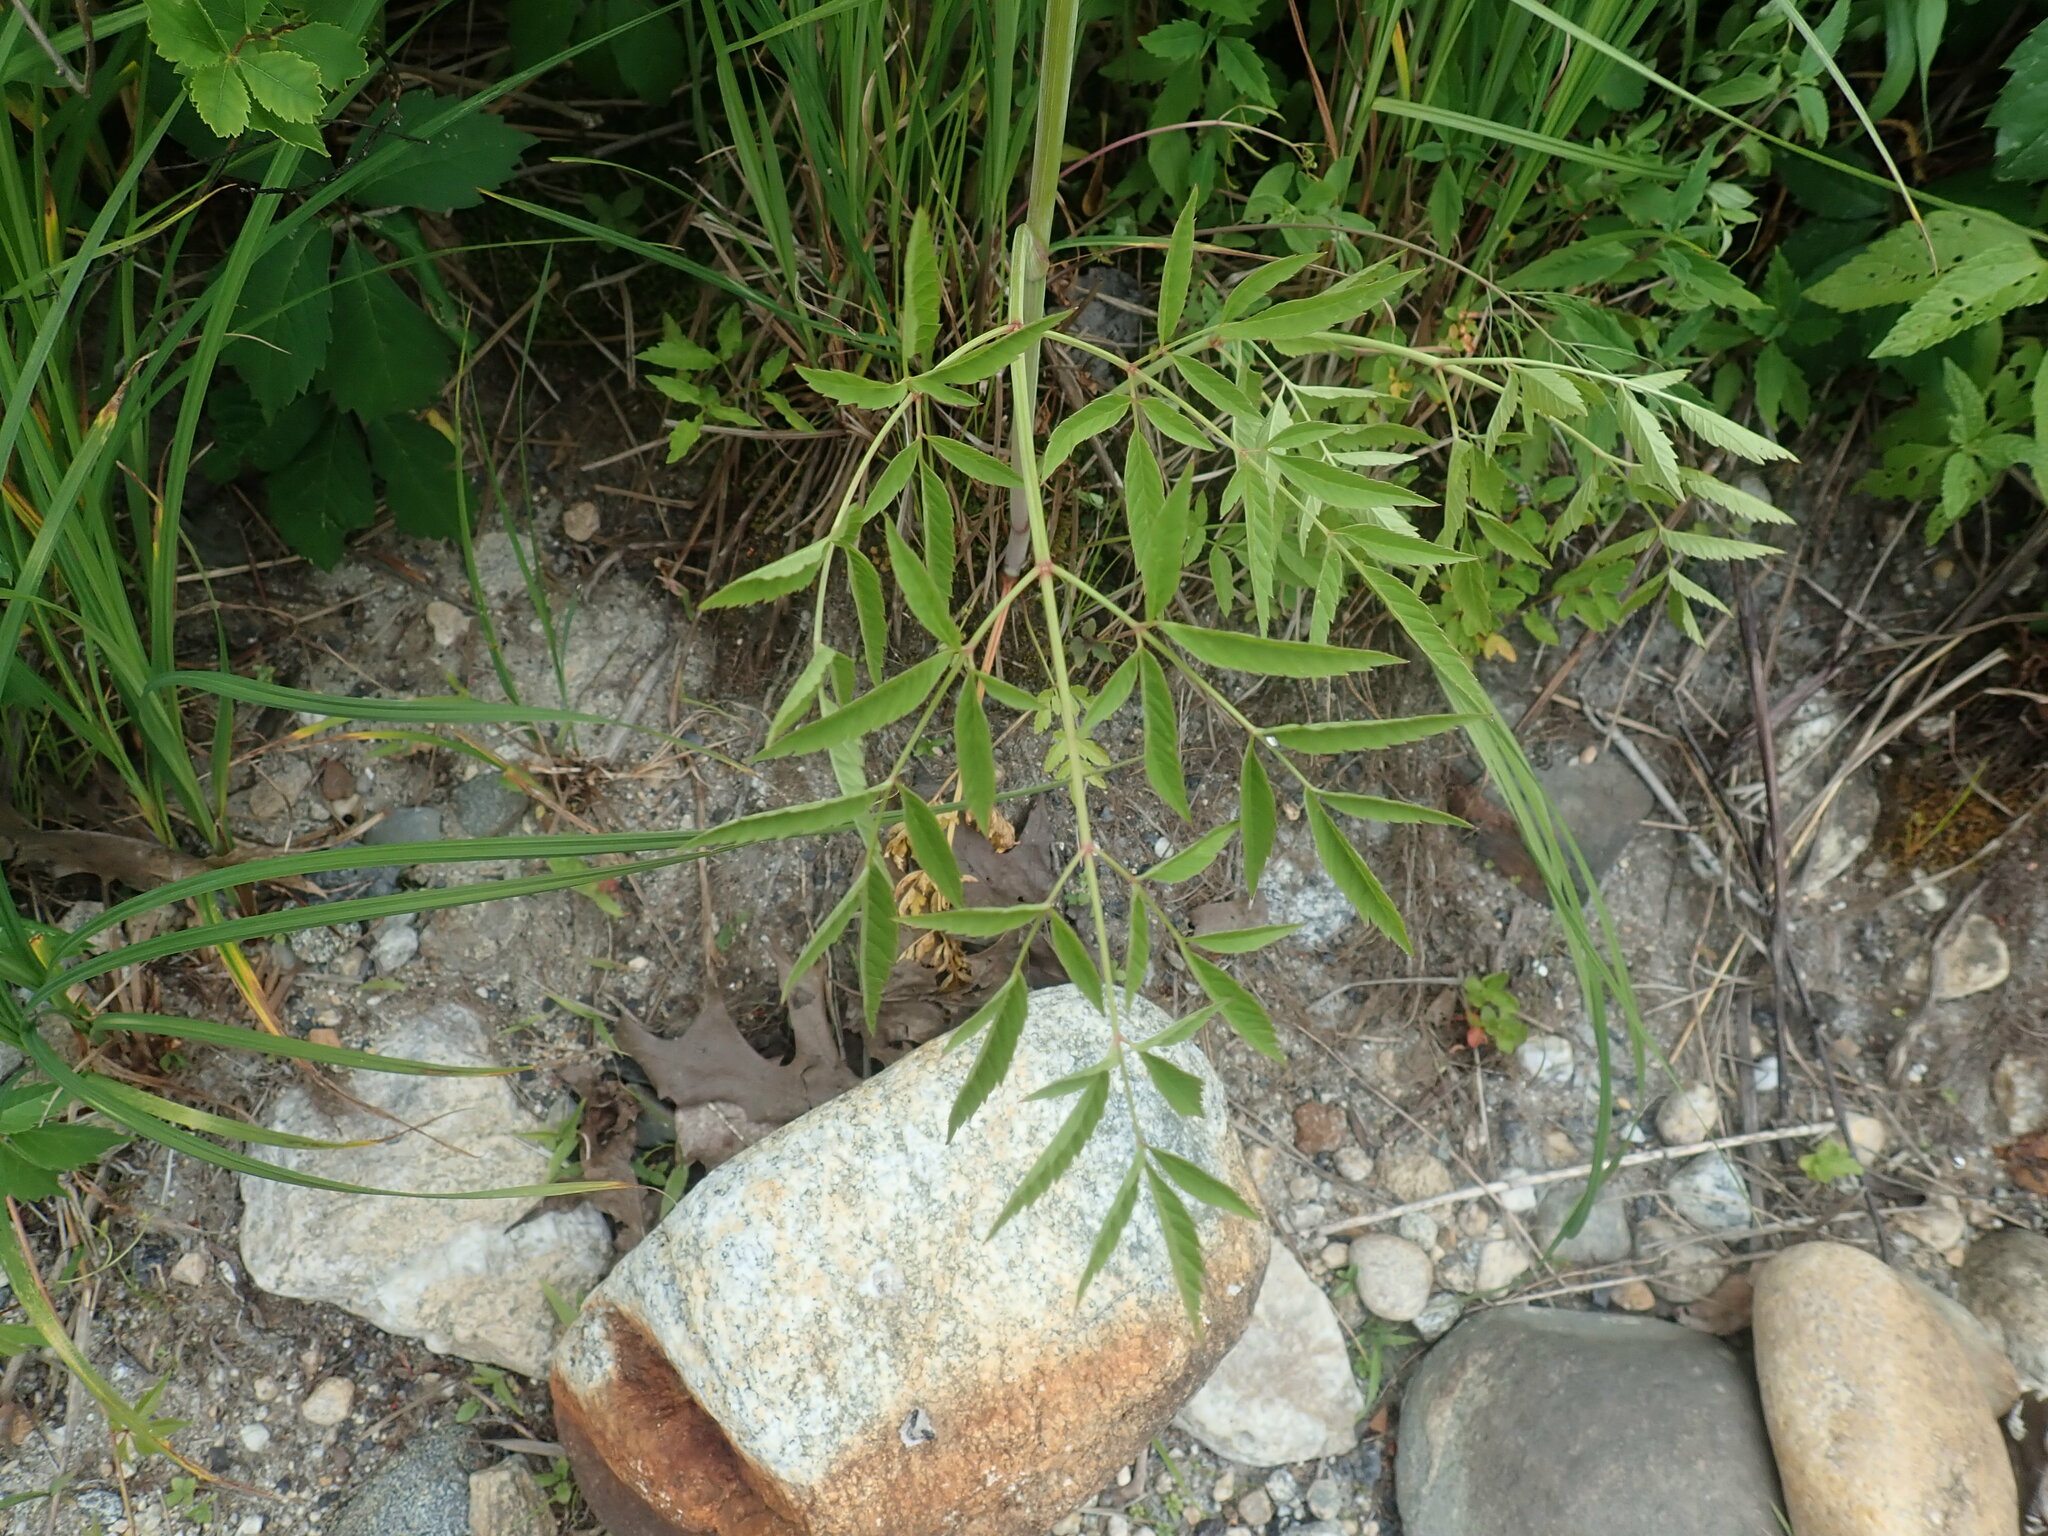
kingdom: Plantae
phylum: Tracheophyta
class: Magnoliopsida
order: Apiales
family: Apiaceae
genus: Cicuta
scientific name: Cicuta maculata
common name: Spotted cowbane
